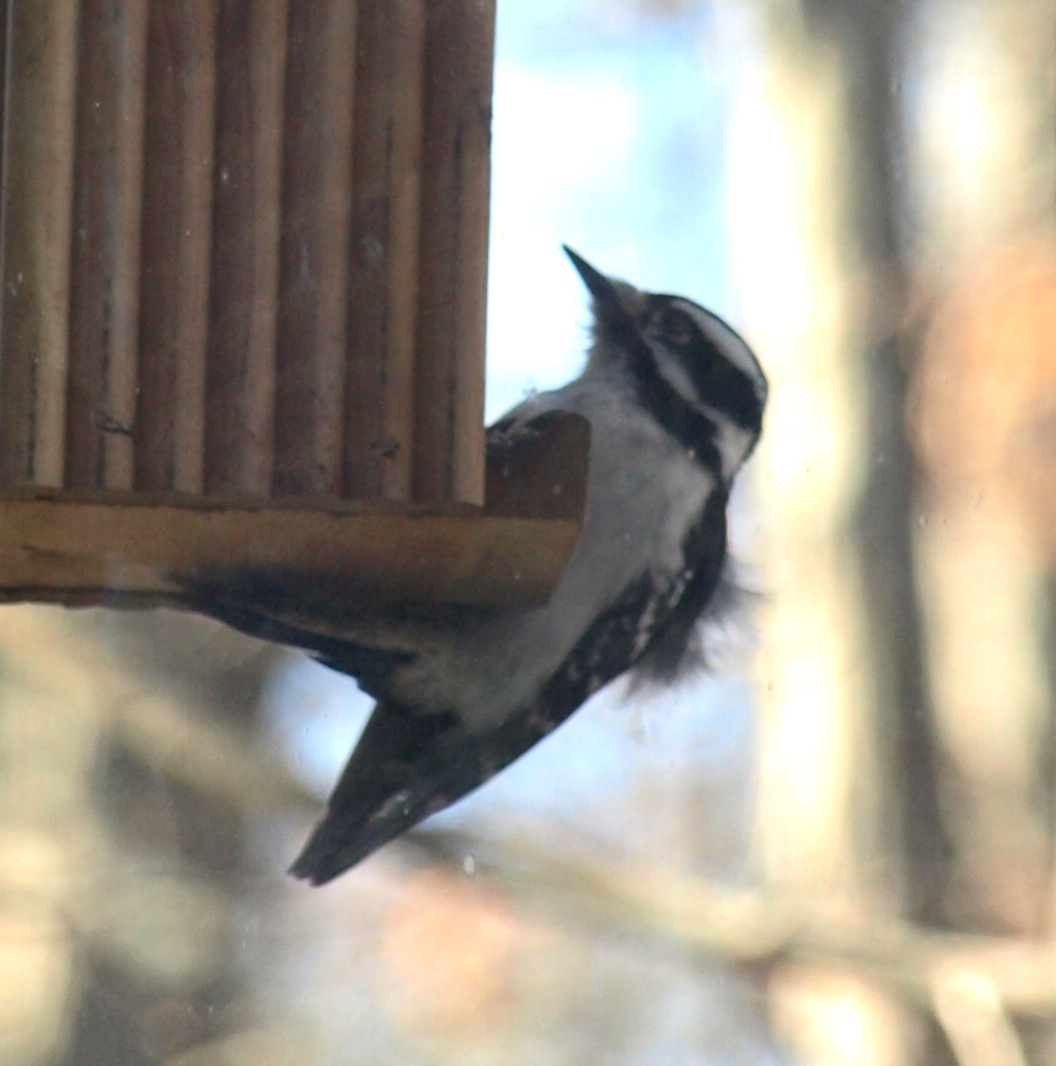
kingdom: Animalia
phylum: Chordata
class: Aves
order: Piciformes
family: Picidae
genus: Dryobates
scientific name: Dryobates pubescens
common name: Downy woodpecker
